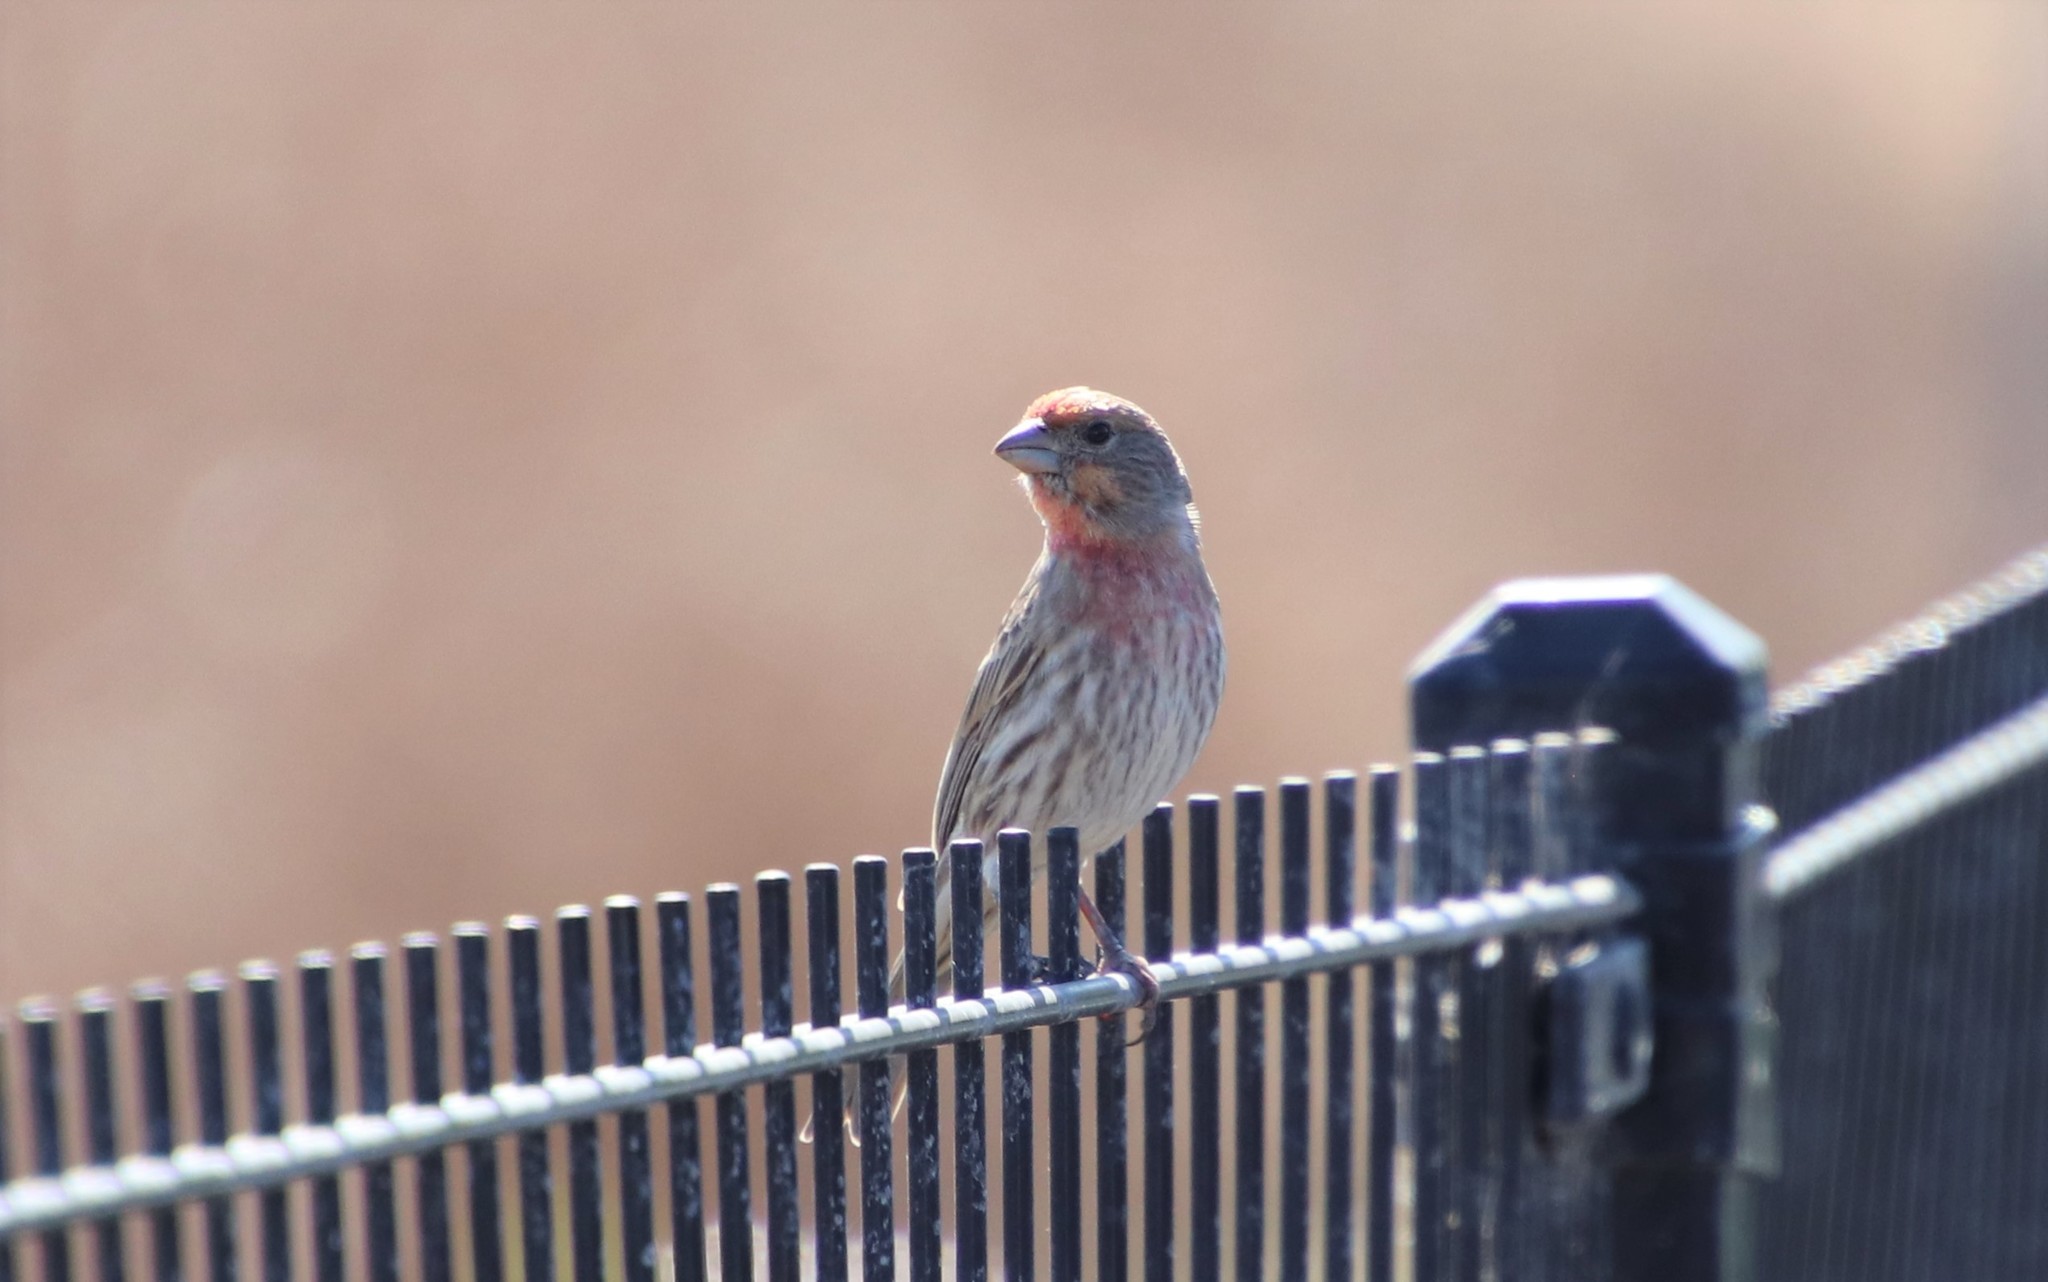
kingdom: Animalia
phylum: Chordata
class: Aves
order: Passeriformes
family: Fringillidae
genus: Haemorhous
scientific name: Haemorhous mexicanus
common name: House finch
